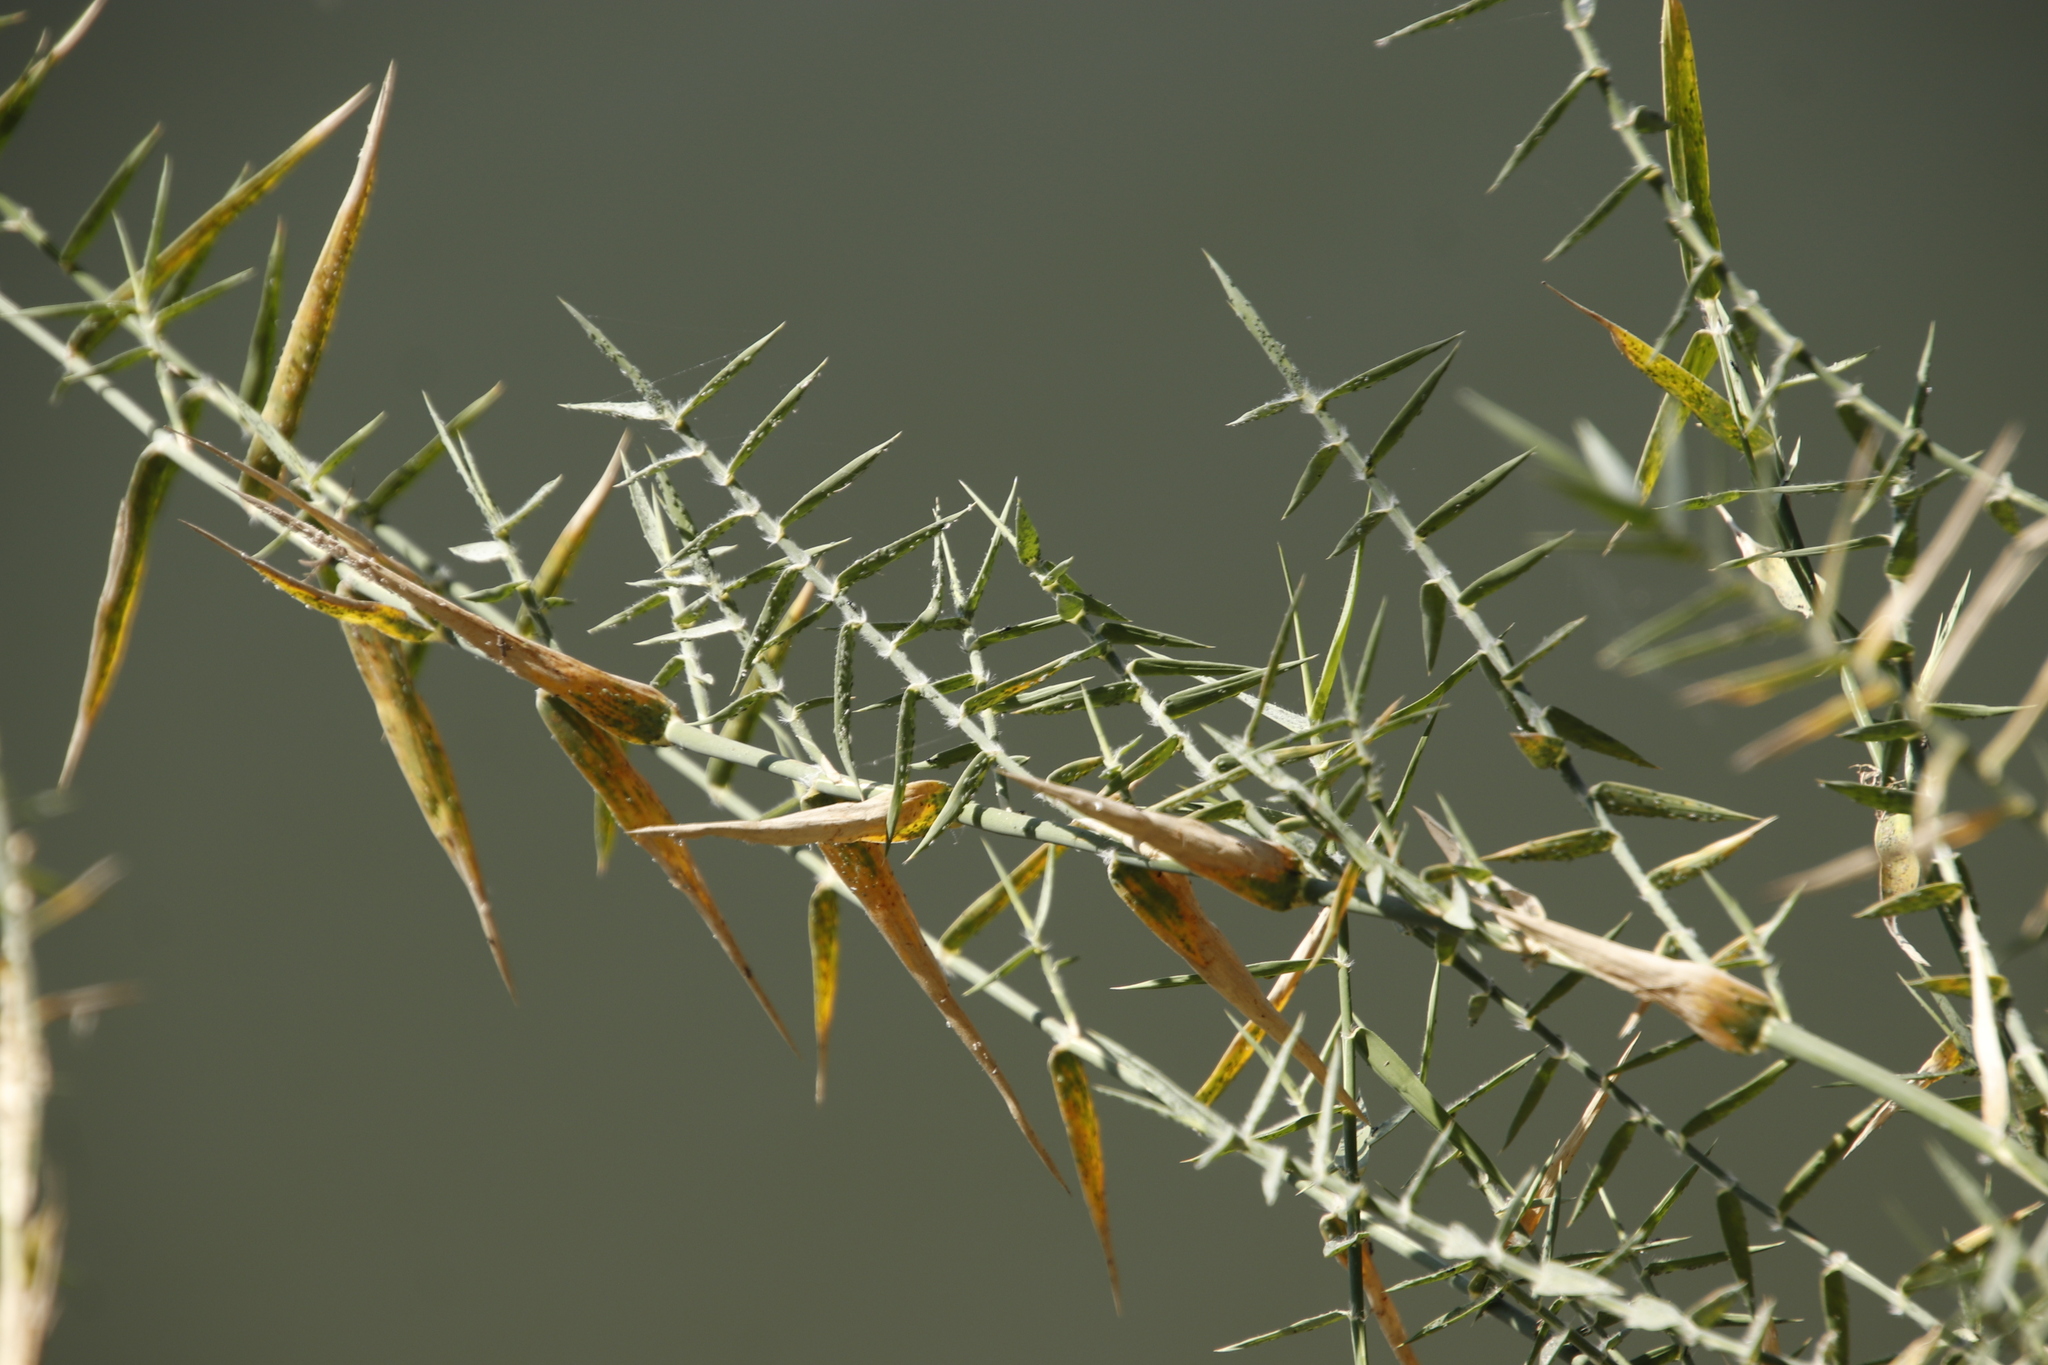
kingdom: Plantae
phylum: Tracheophyta
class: Liliopsida
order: Poales
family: Poaceae
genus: Phragmites
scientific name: Phragmites mauritianus
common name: Reed grass
